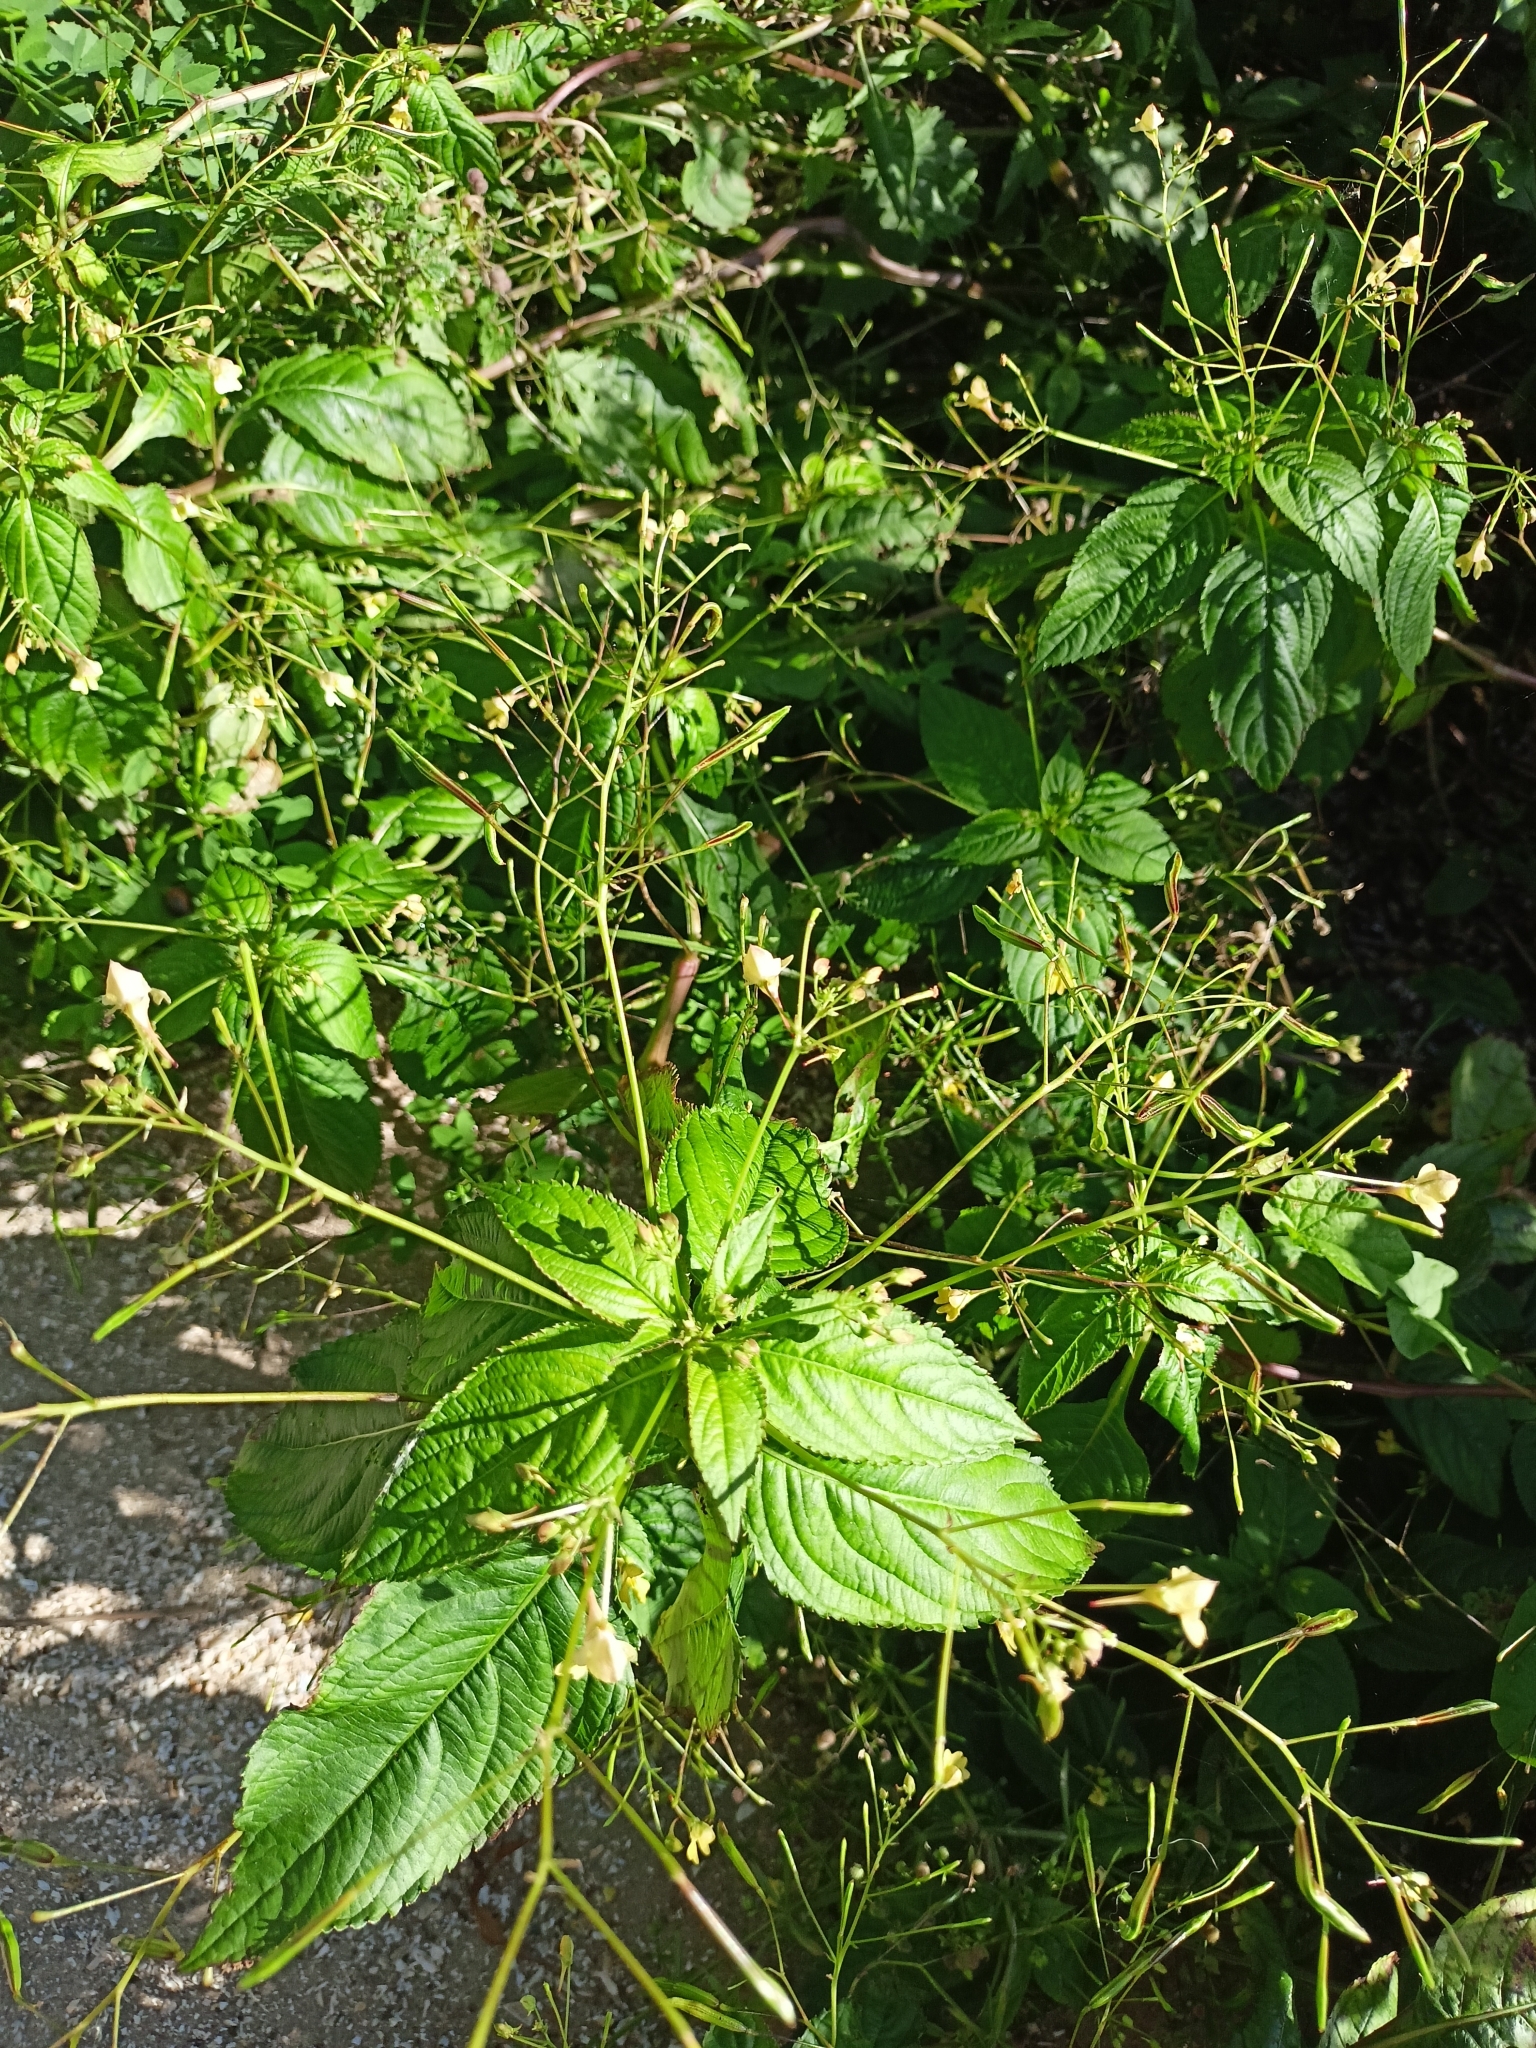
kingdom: Plantae
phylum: Tracheophyta
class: Magnoliopsida
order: Ericales
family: Balsaminaceae
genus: Impatiens
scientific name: Impatiens parviflora
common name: Small balsam
